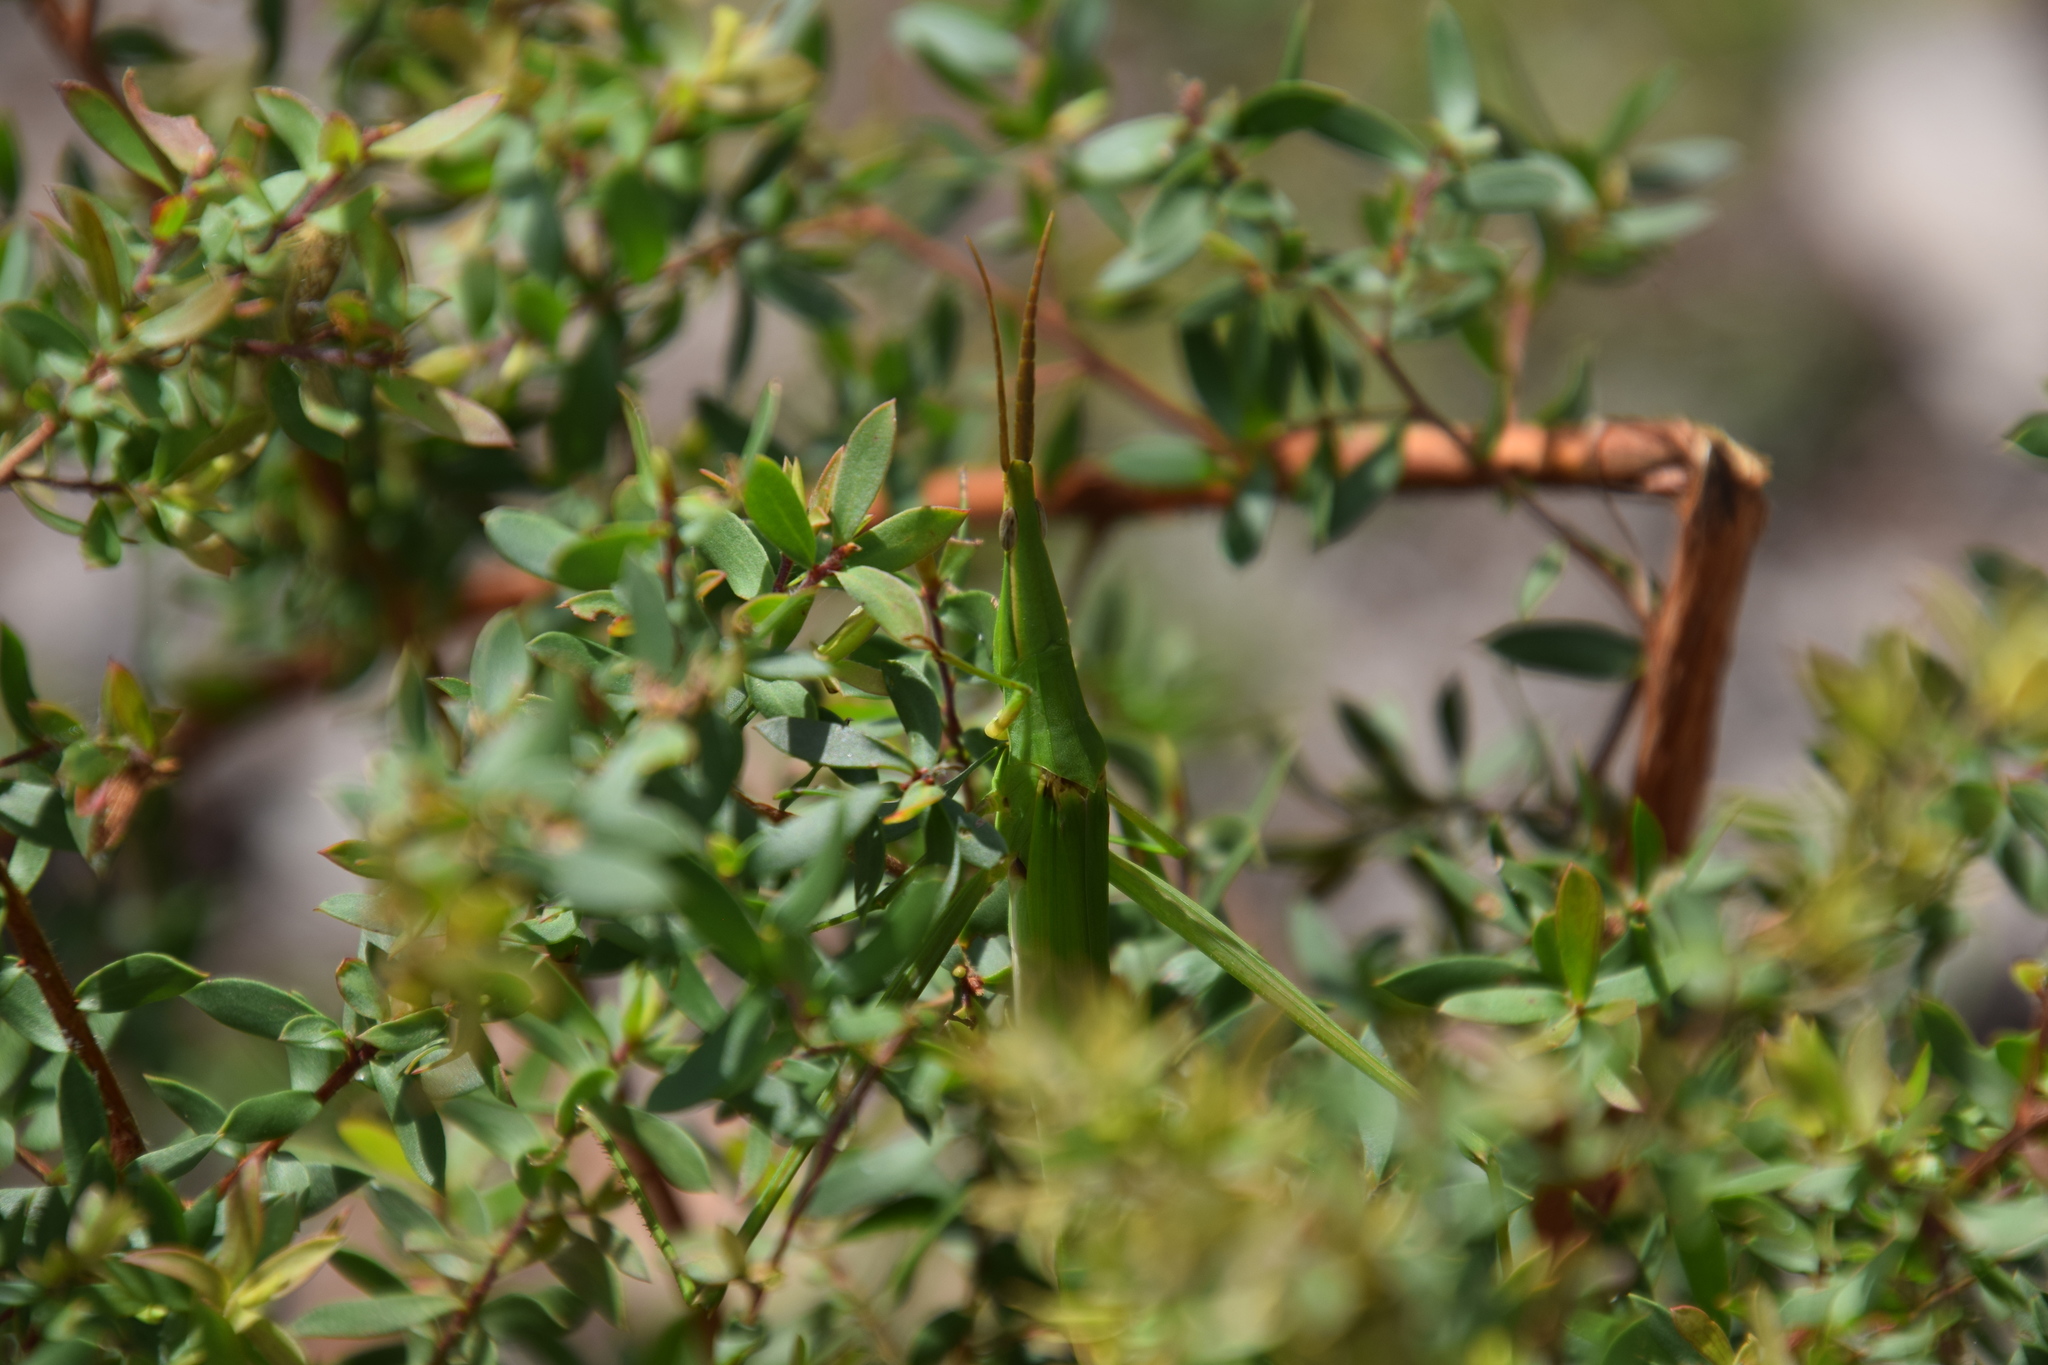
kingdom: Animalia
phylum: Arthropoda
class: Insecta
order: Orthoptera
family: Acrididae
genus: Acrida
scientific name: Acrida conica
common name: Giant green slantface
